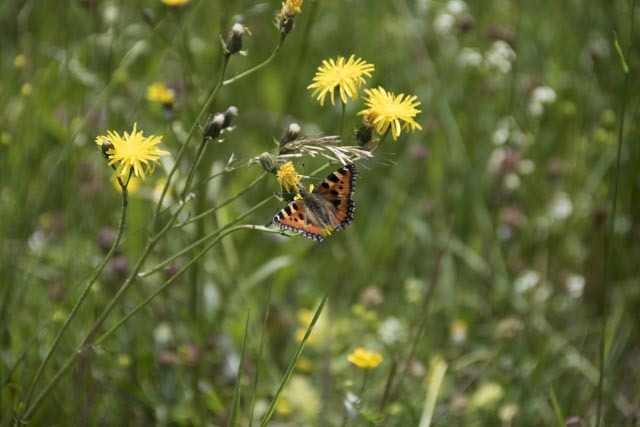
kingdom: Animalia
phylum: Arthropoda
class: Insecta
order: Lepidoptera
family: Nymphalidae
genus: Aglais
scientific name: Aglais urticae
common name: Small tortoiseshell
